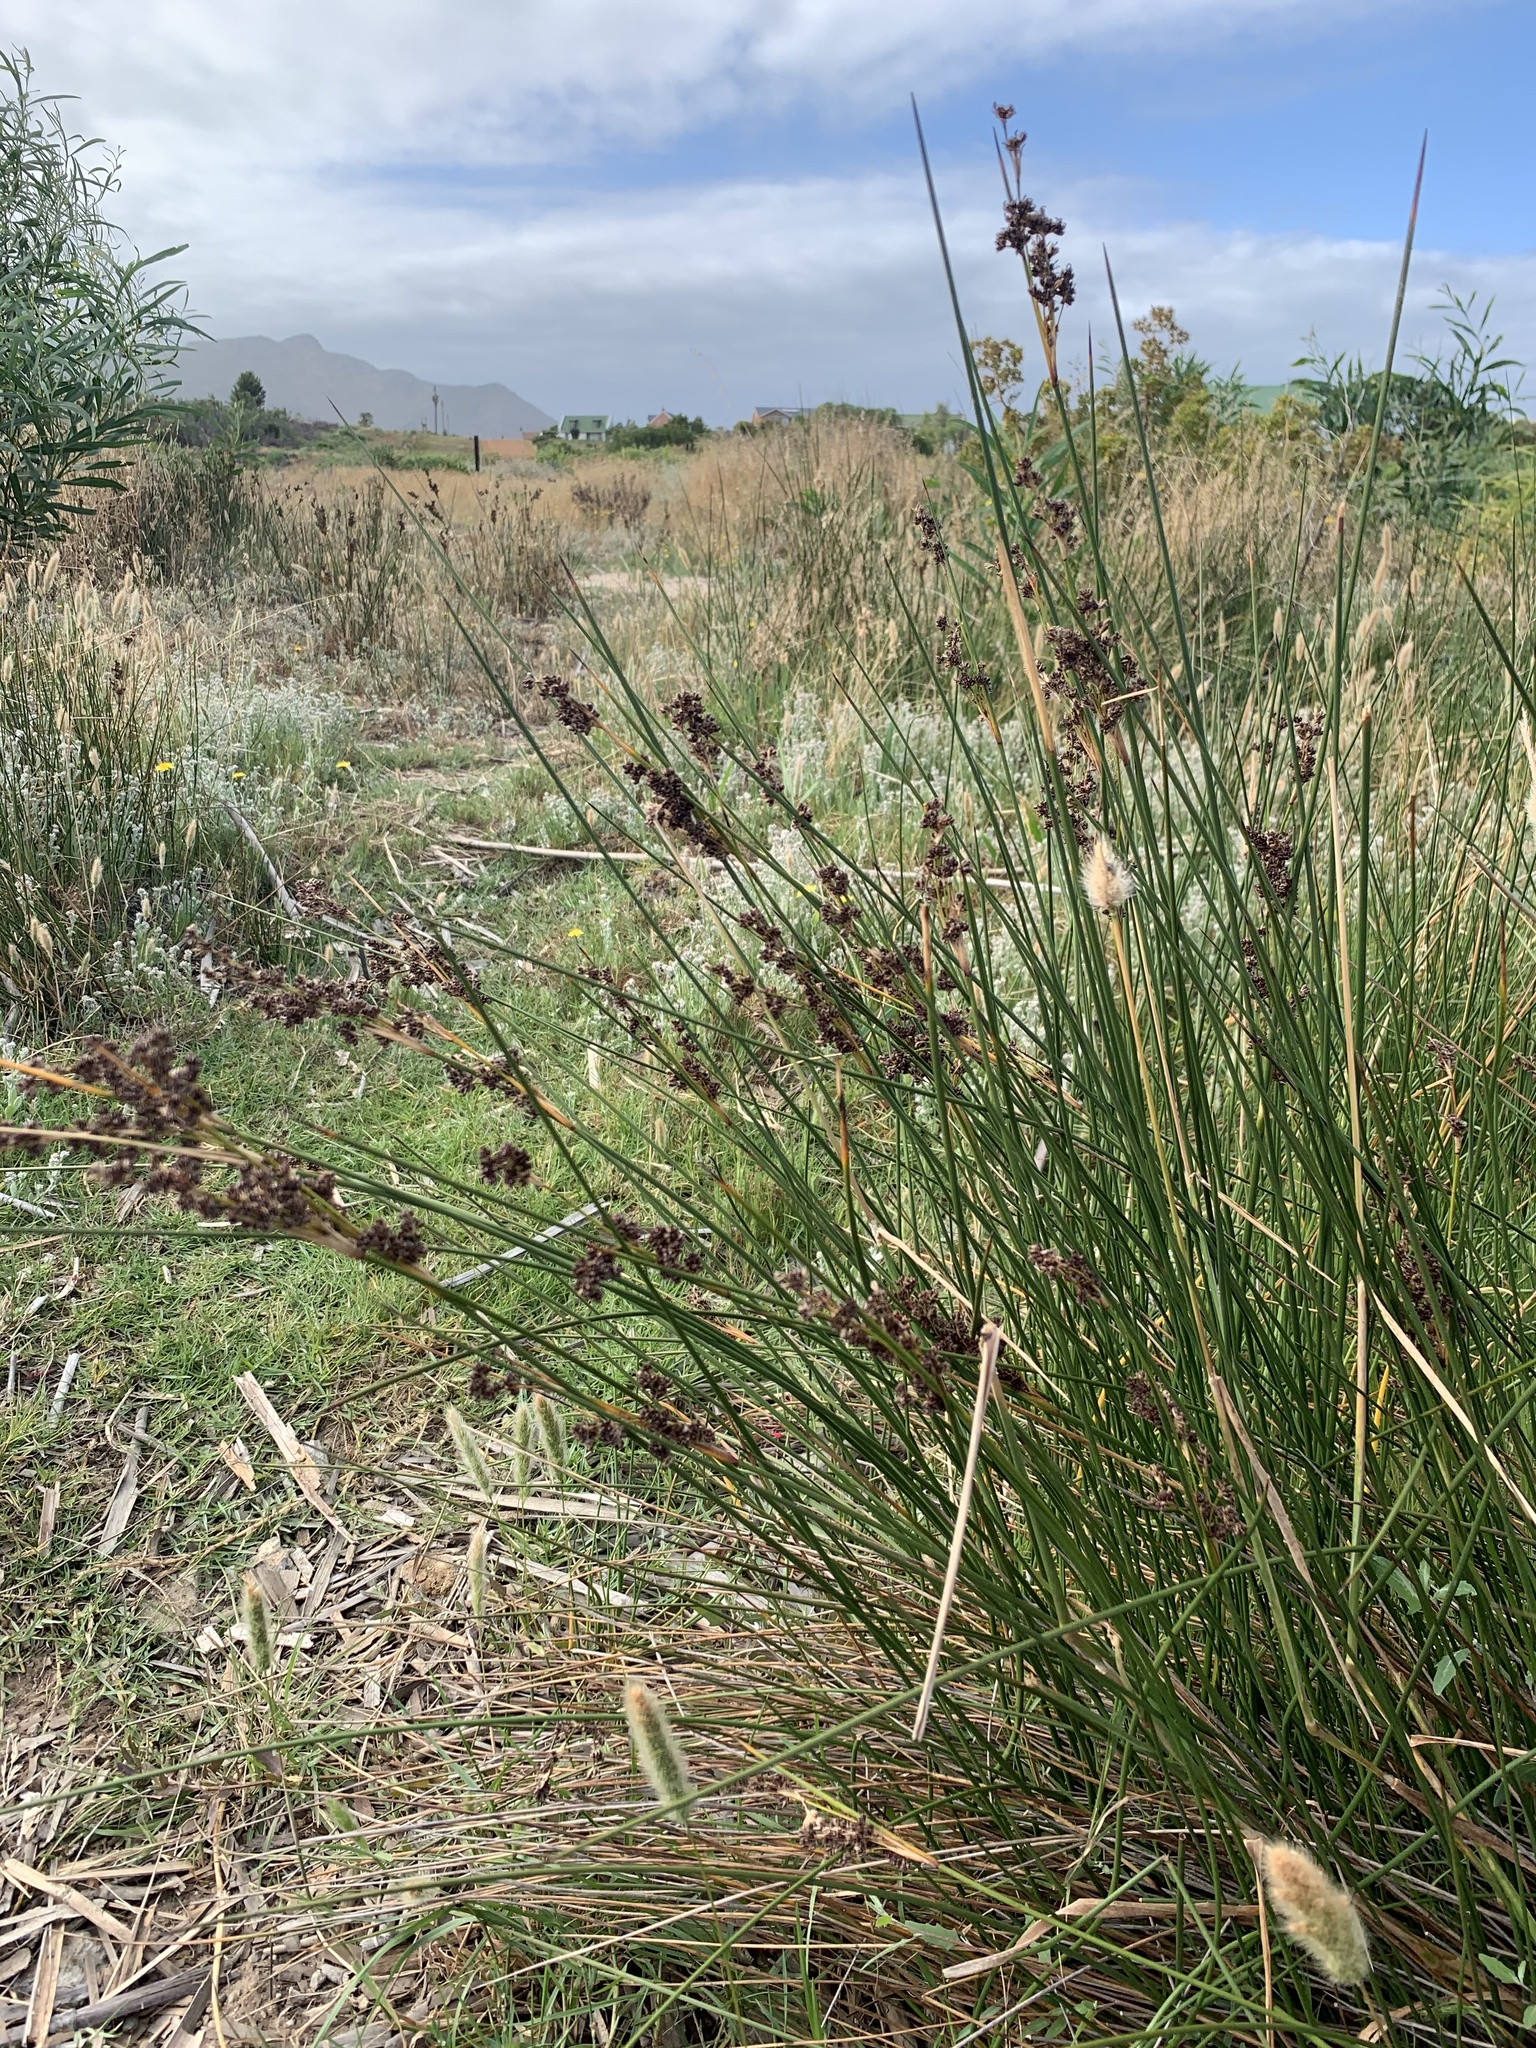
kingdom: Plantae
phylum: Tracheophyta
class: Liliopsida
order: Poales
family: Juncaceae
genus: Juncus
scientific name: Juncus kraussii
